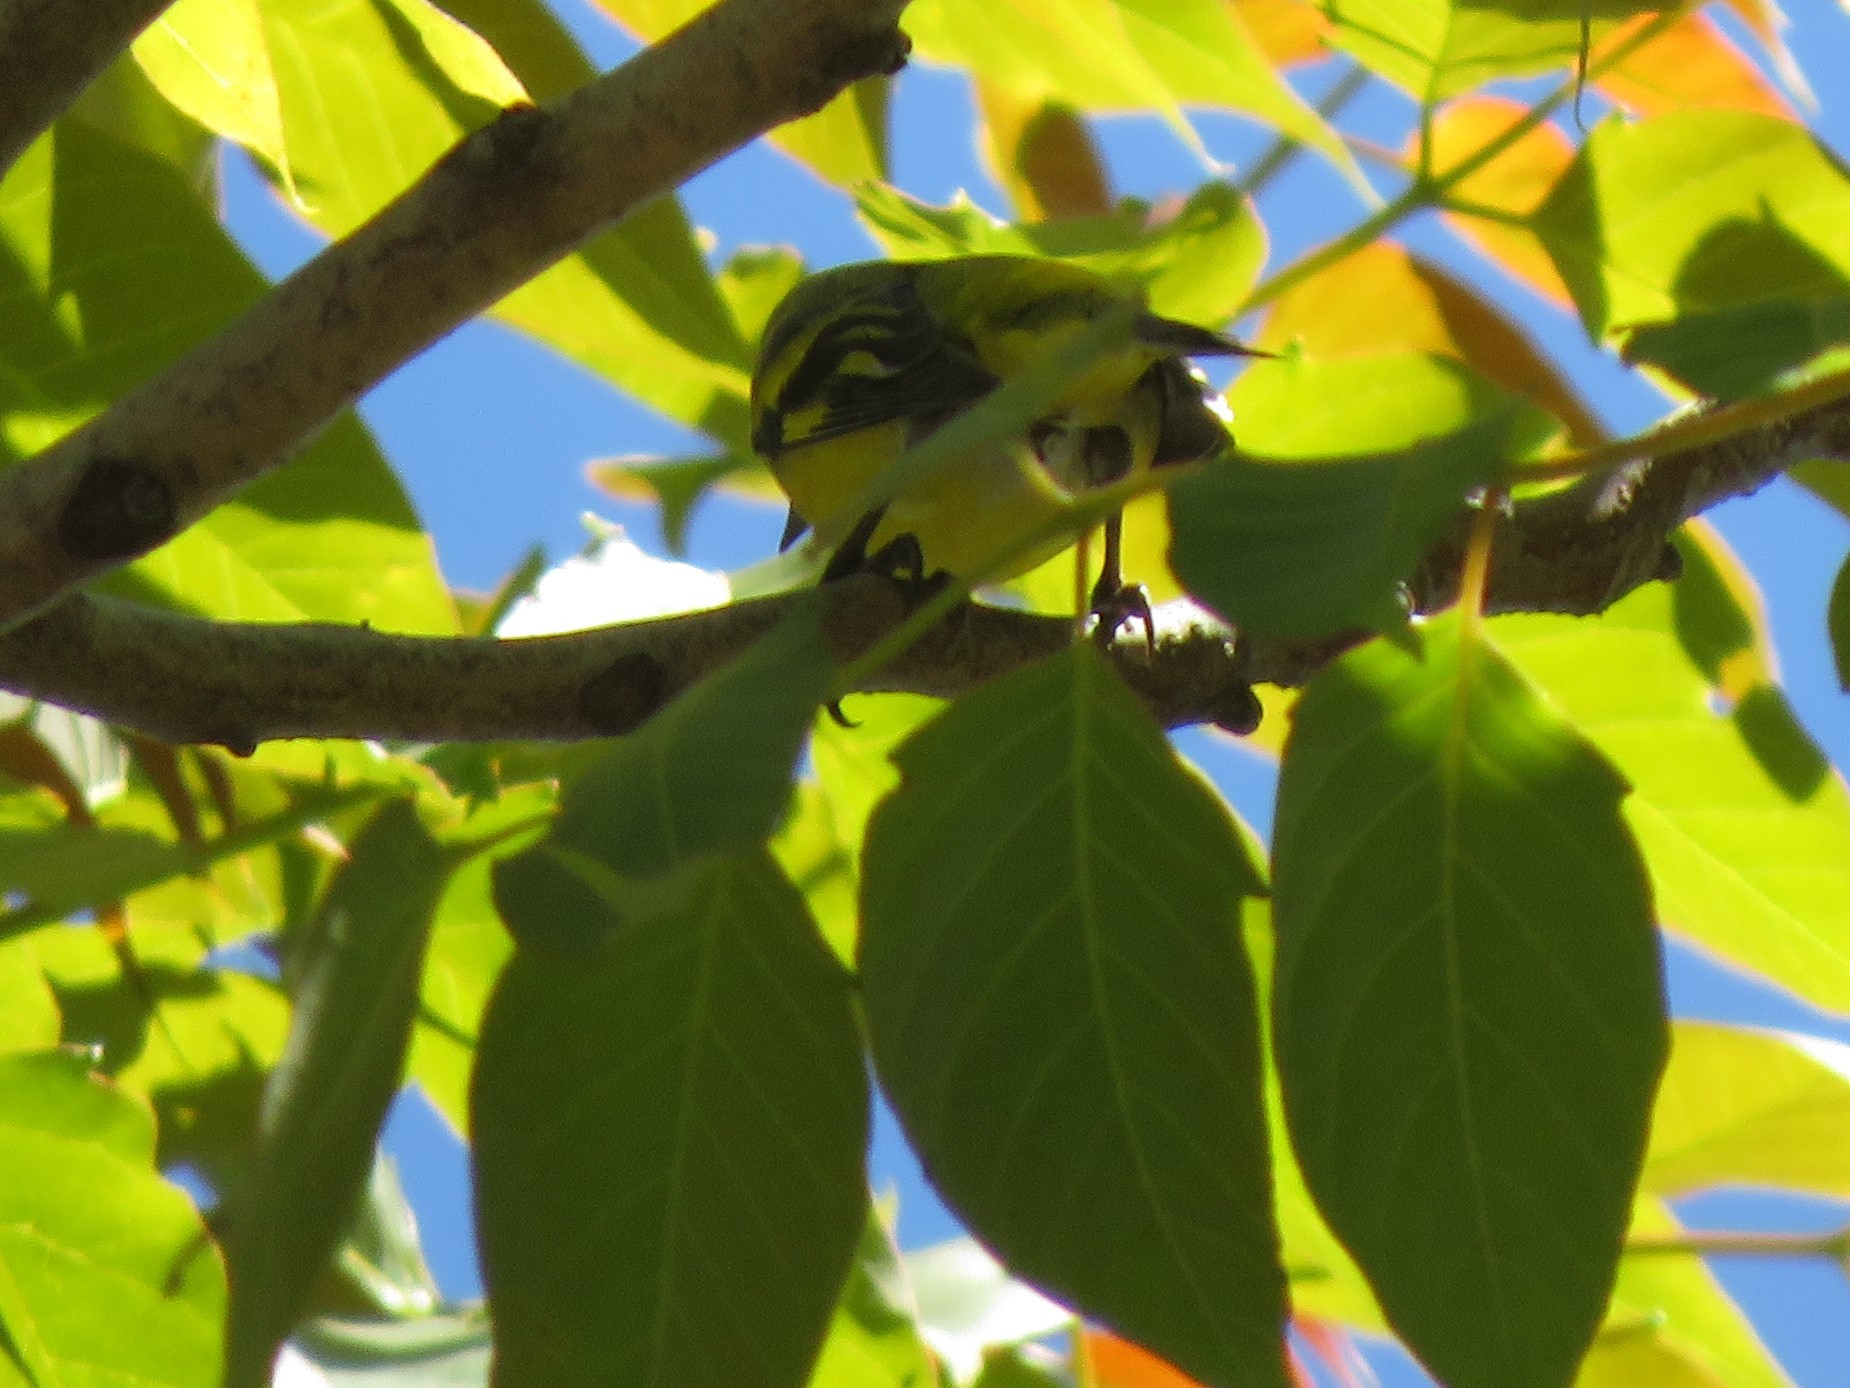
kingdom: Animalia
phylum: Chordata
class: Aves
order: Passeriformes
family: Fringillidae
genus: Spinus
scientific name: Spinus magellanicus
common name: Hooded siskin
